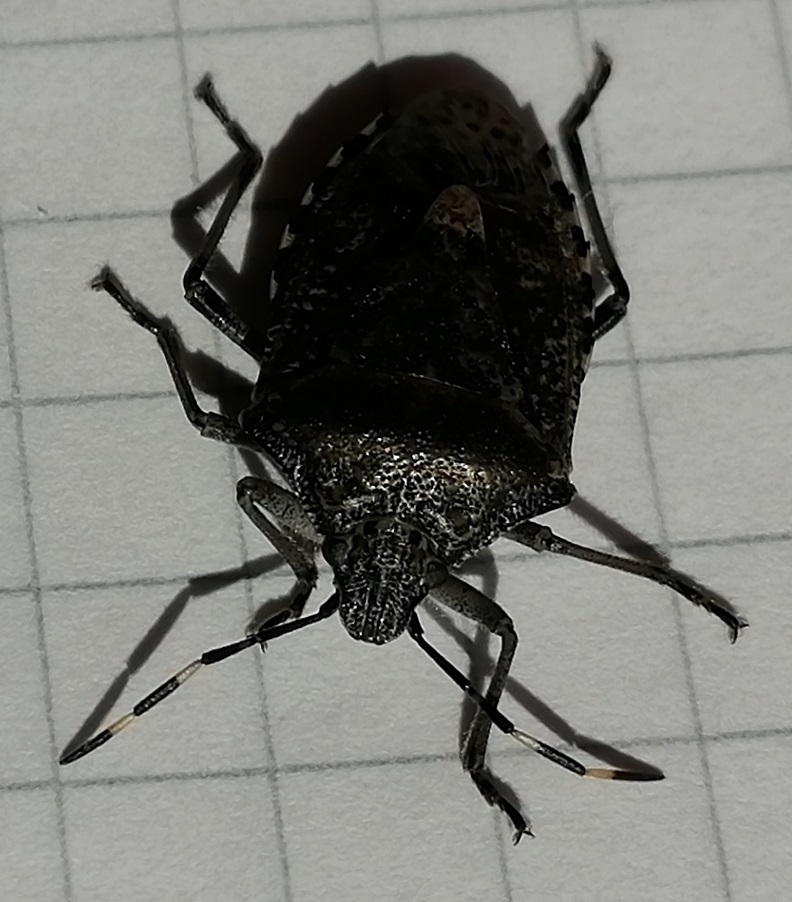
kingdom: Animalia
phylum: Arthropoda
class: Insecta
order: Hemiptera
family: Pentatomidae
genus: Rhaphigaster
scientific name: Rhaphigaster nebulosa
